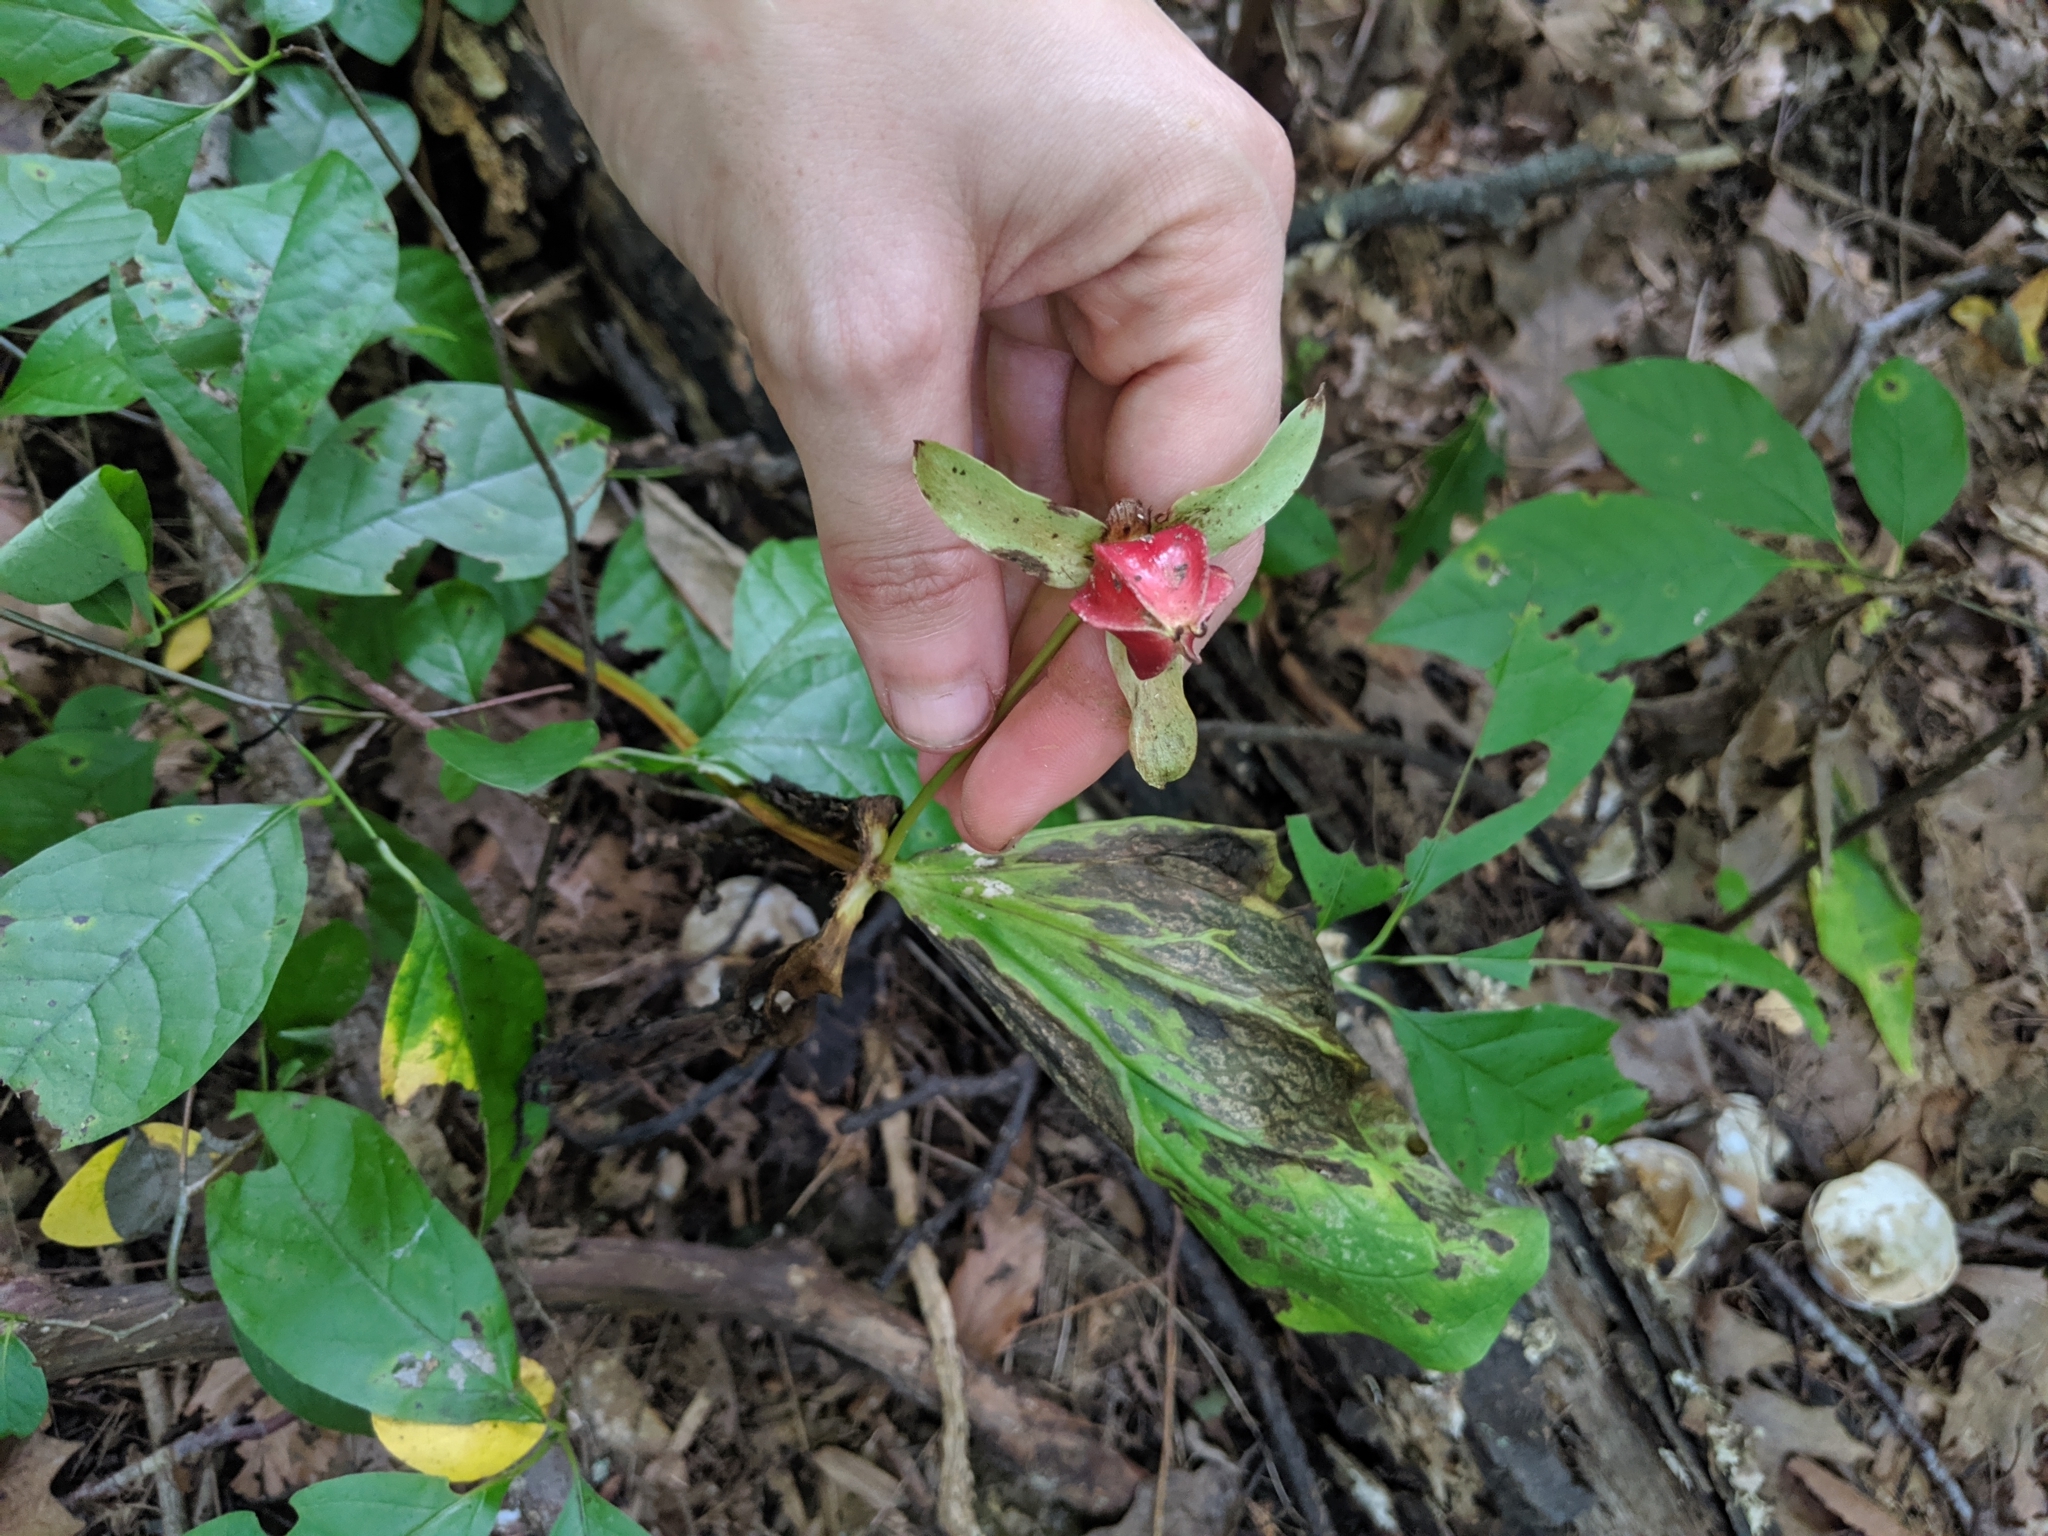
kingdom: Plantae
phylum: Tracheophyta
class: Liliopsida
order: Liliales
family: Melanthiaceae
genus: Trillium
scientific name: Trillium flexipes
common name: Drooping trillium
